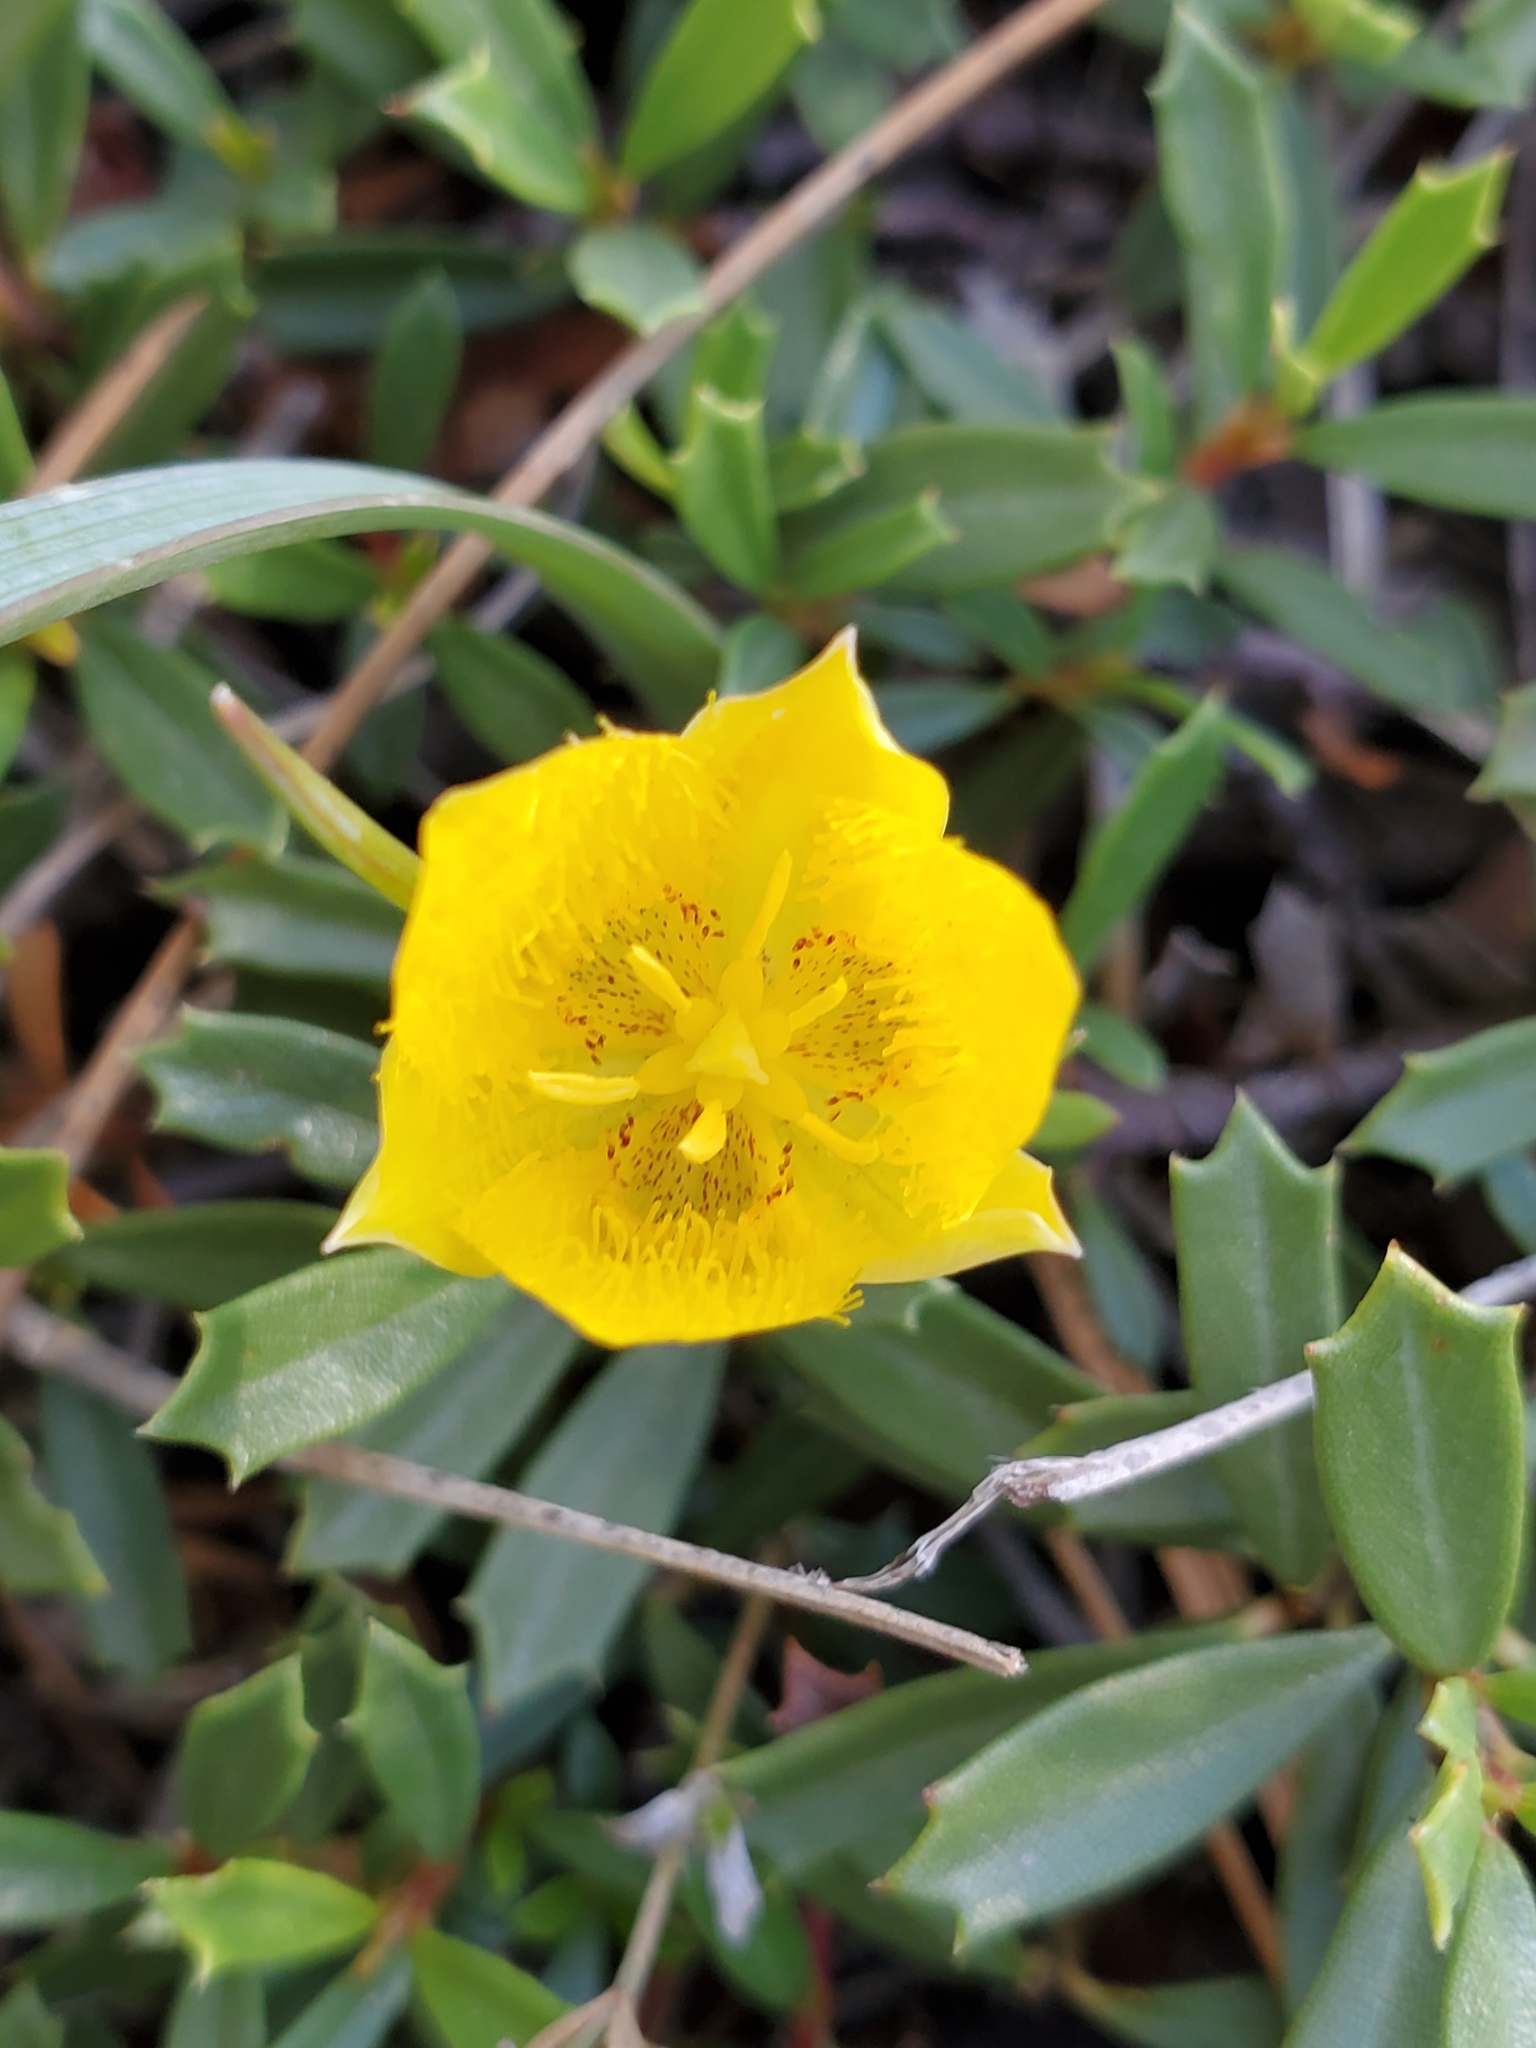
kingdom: Plantae
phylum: Tracheophyta
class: Liliopsida
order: Liliales
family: Liliaceae
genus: Calochortus
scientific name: Calochortus monophyllus
